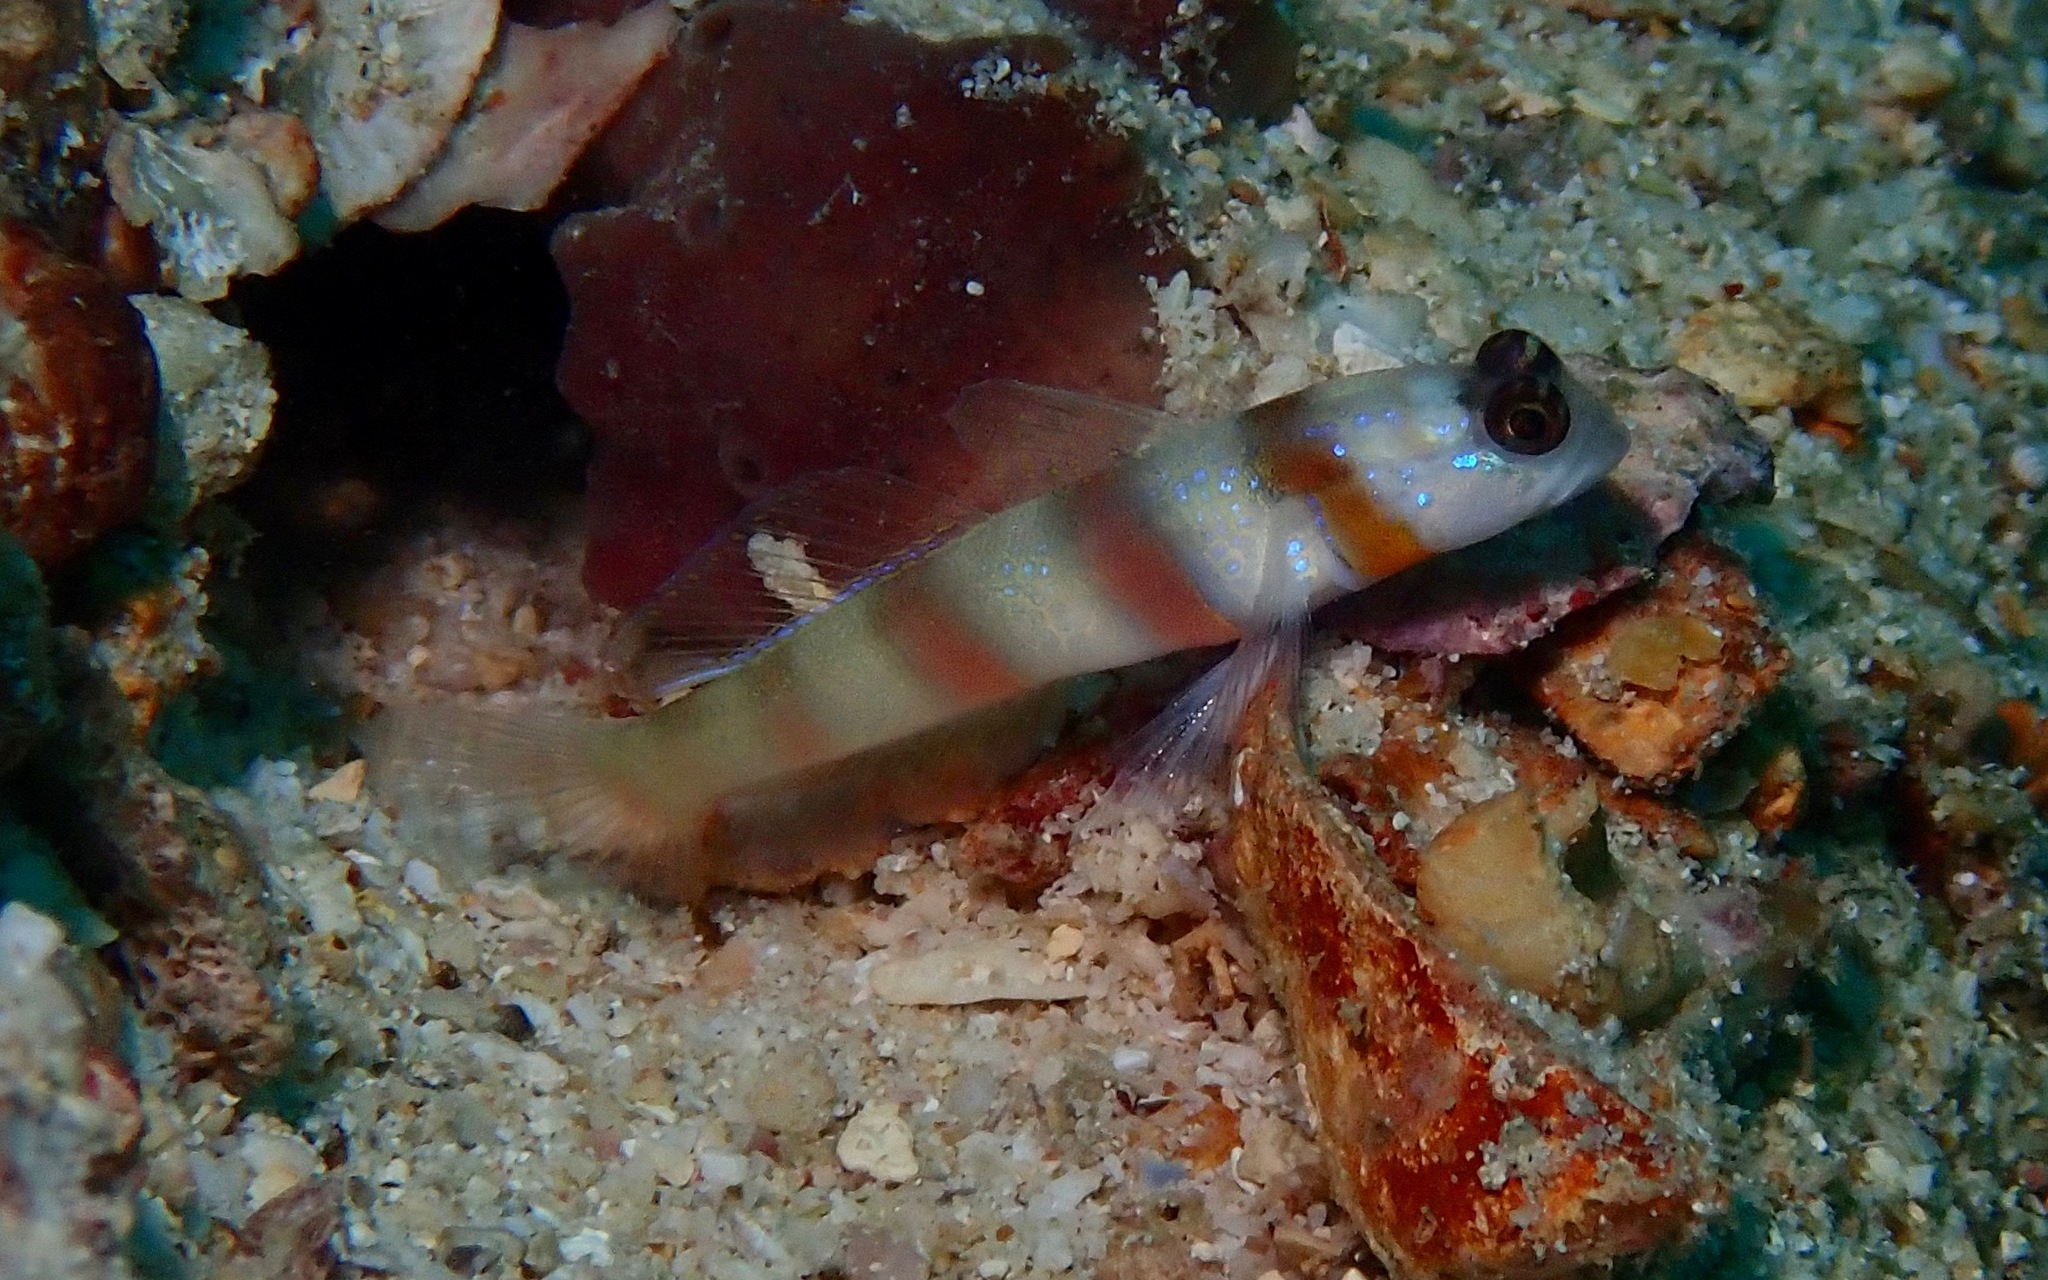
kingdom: Animalia
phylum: Chordata
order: Perciformes
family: Gobiidae
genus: Amblyeleotris
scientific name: Amblyeleotris steinitzi
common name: Steinitz' prawn-goby
